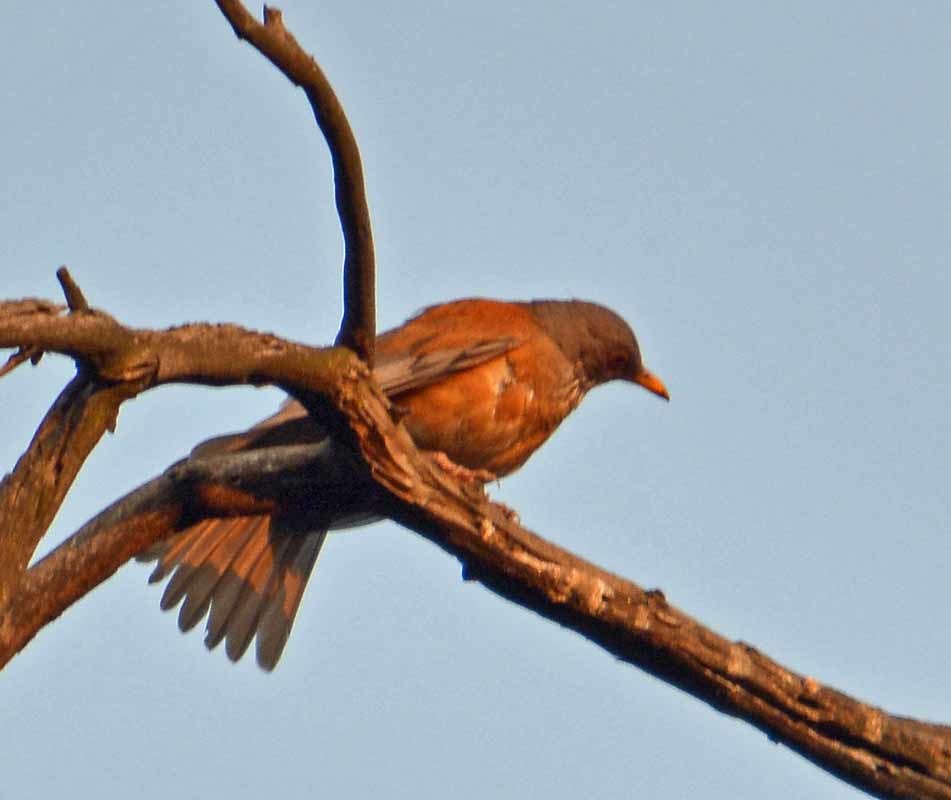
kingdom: Animalia
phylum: Chordata
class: Aves
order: Passeriformes
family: Turdidae
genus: Turdus
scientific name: Turdus rufopalliatus
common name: Rufous-backed robin
